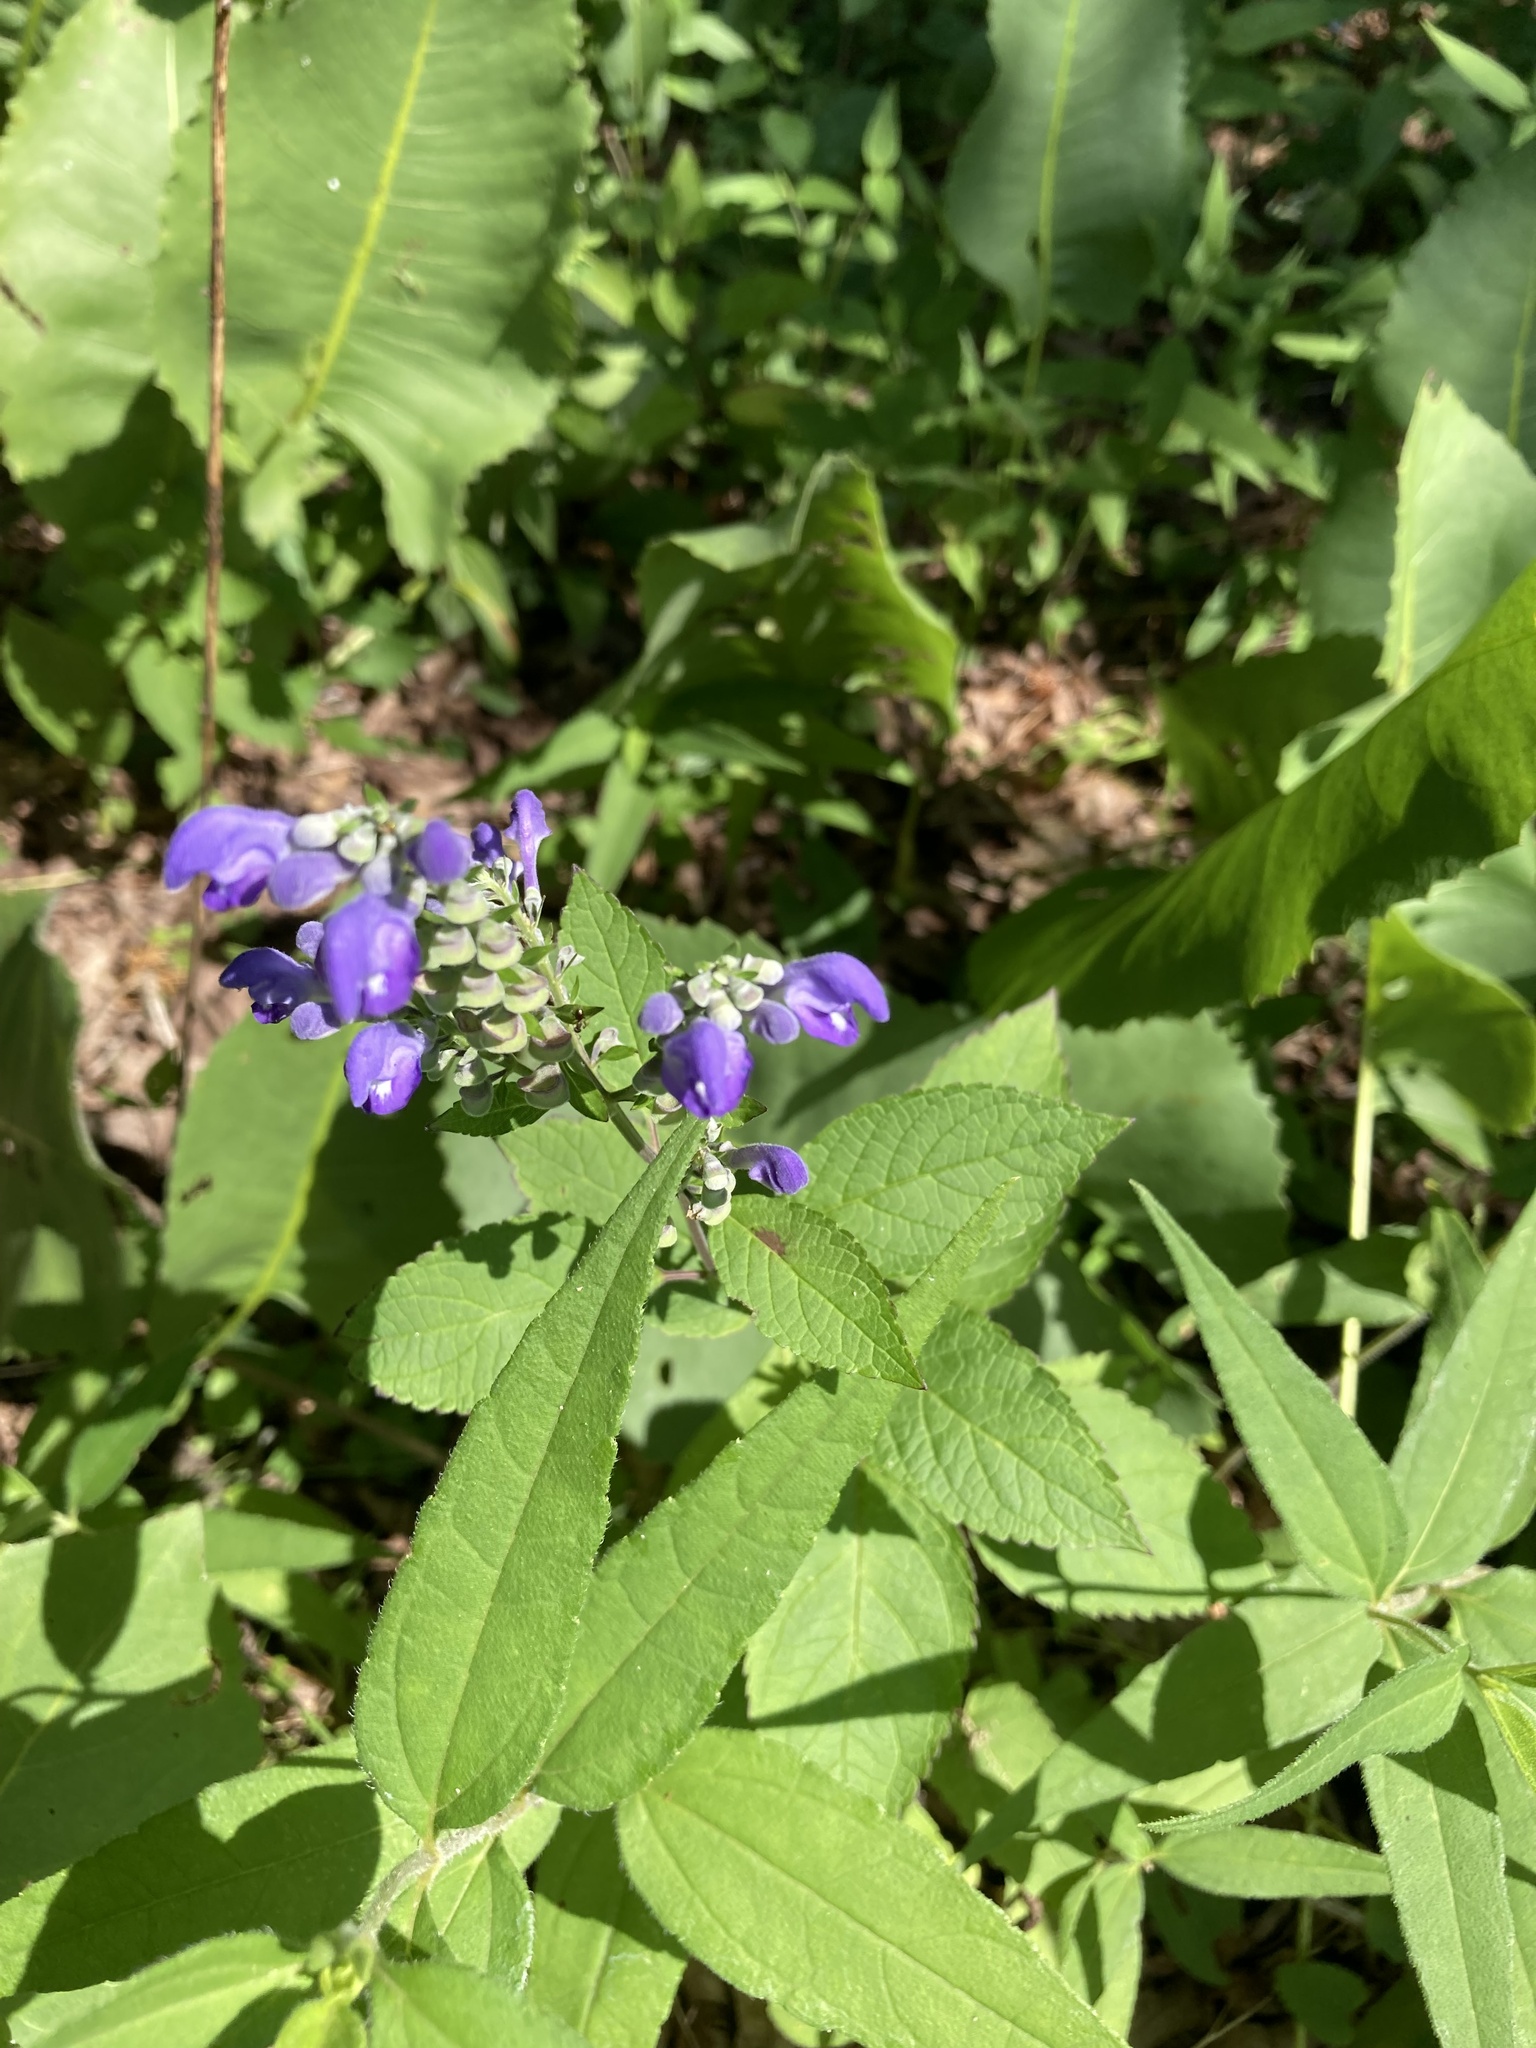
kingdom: Plantae
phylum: Tracheophyta
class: Magnoliopsida
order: Lamiales
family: Lamiaceae
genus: Scutellaria
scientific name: Scutellaria incana
